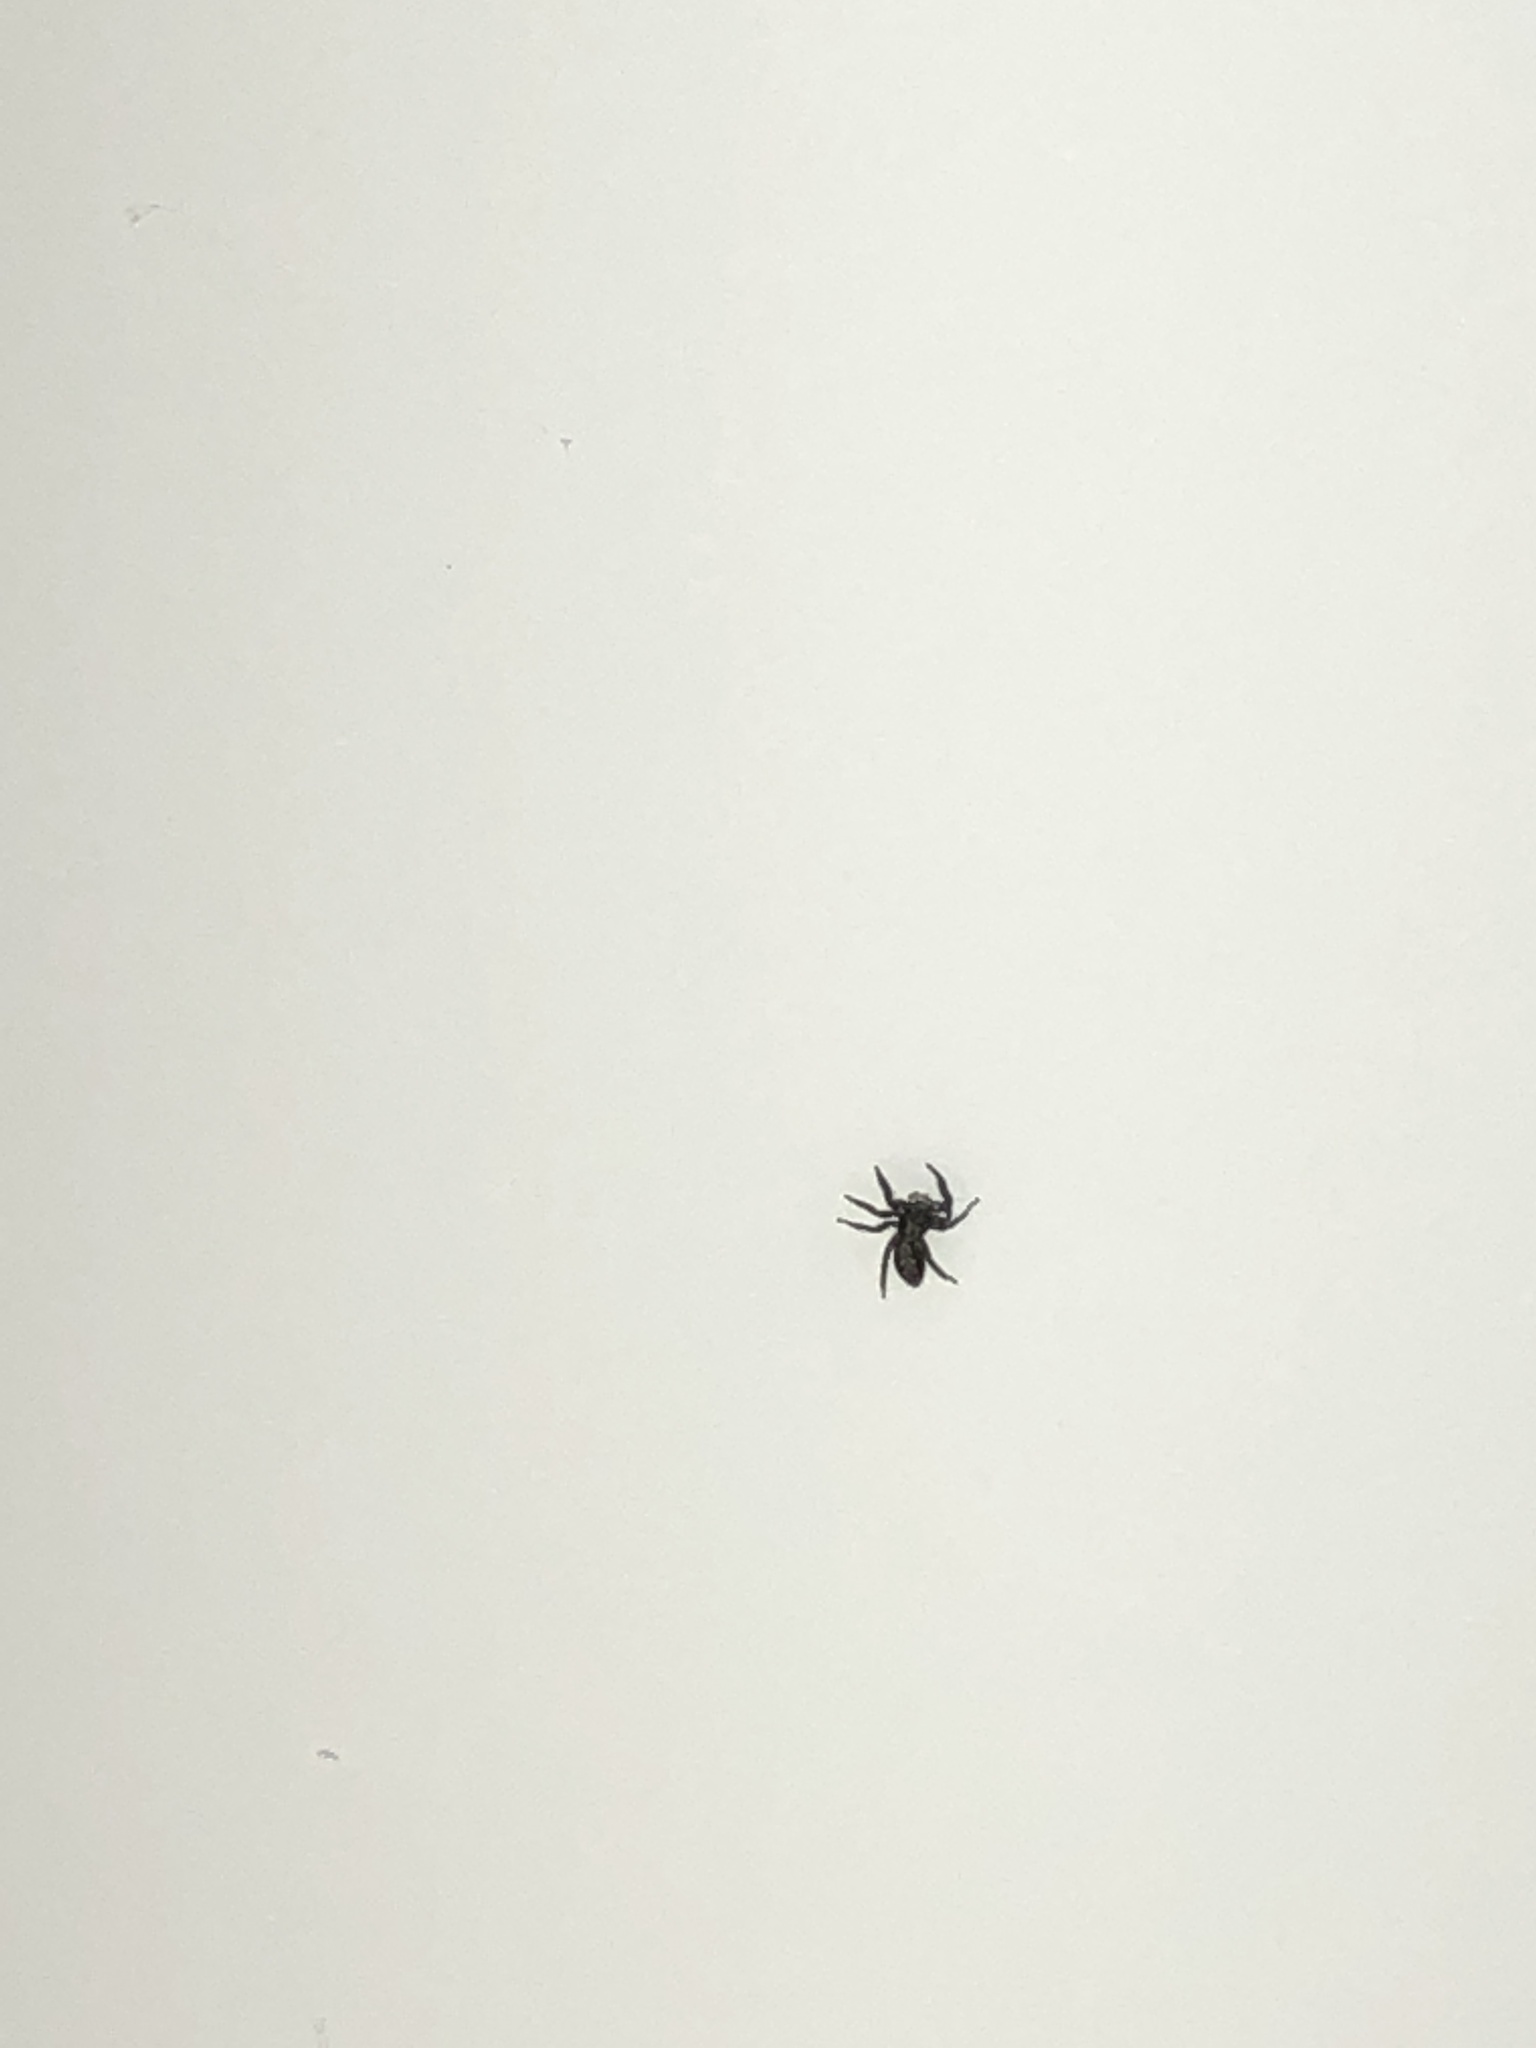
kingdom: Animalia
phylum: Arthropoda
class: Arachnida
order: Araneae
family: Salticidae
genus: Platycryptus
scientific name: Platycryptus californicus
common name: Jumping spiders
